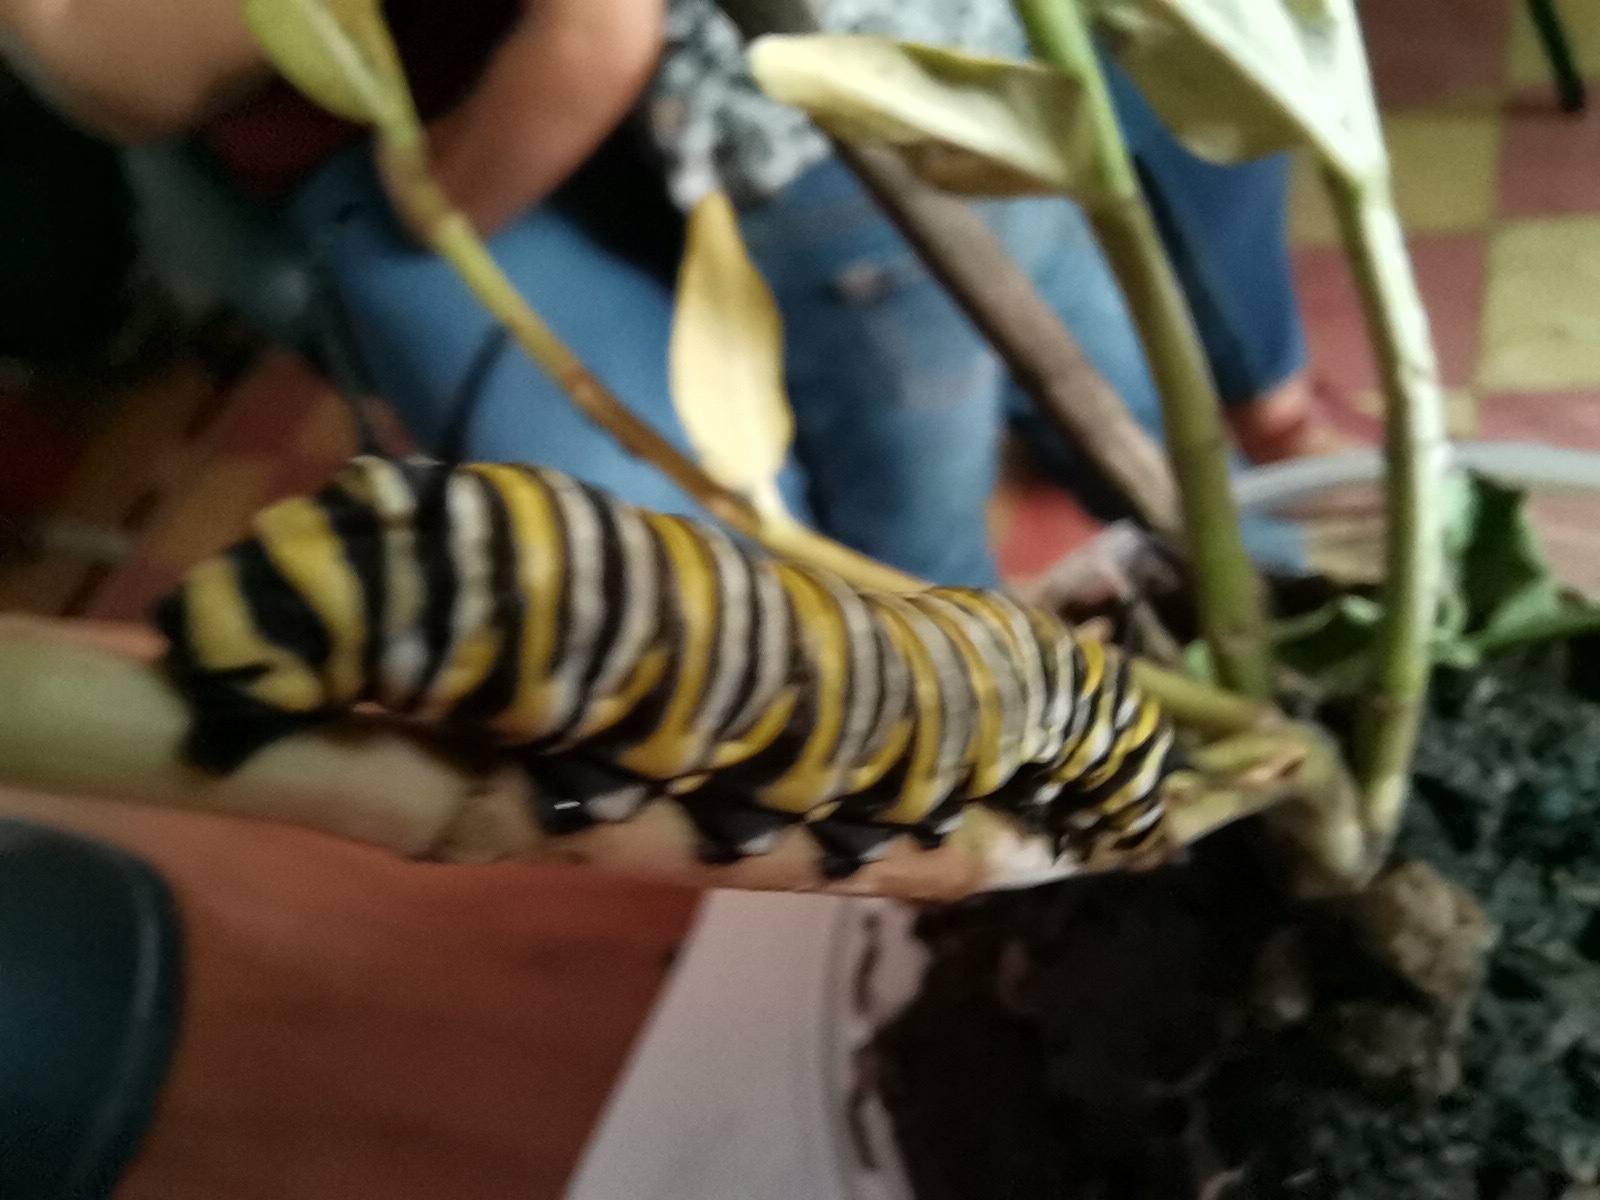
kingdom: Animalia
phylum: Arthropoda
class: Insecta
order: Lepidoptera
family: Nymphalidae
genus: Danaus
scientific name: Danaus plexippus
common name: Monarch
